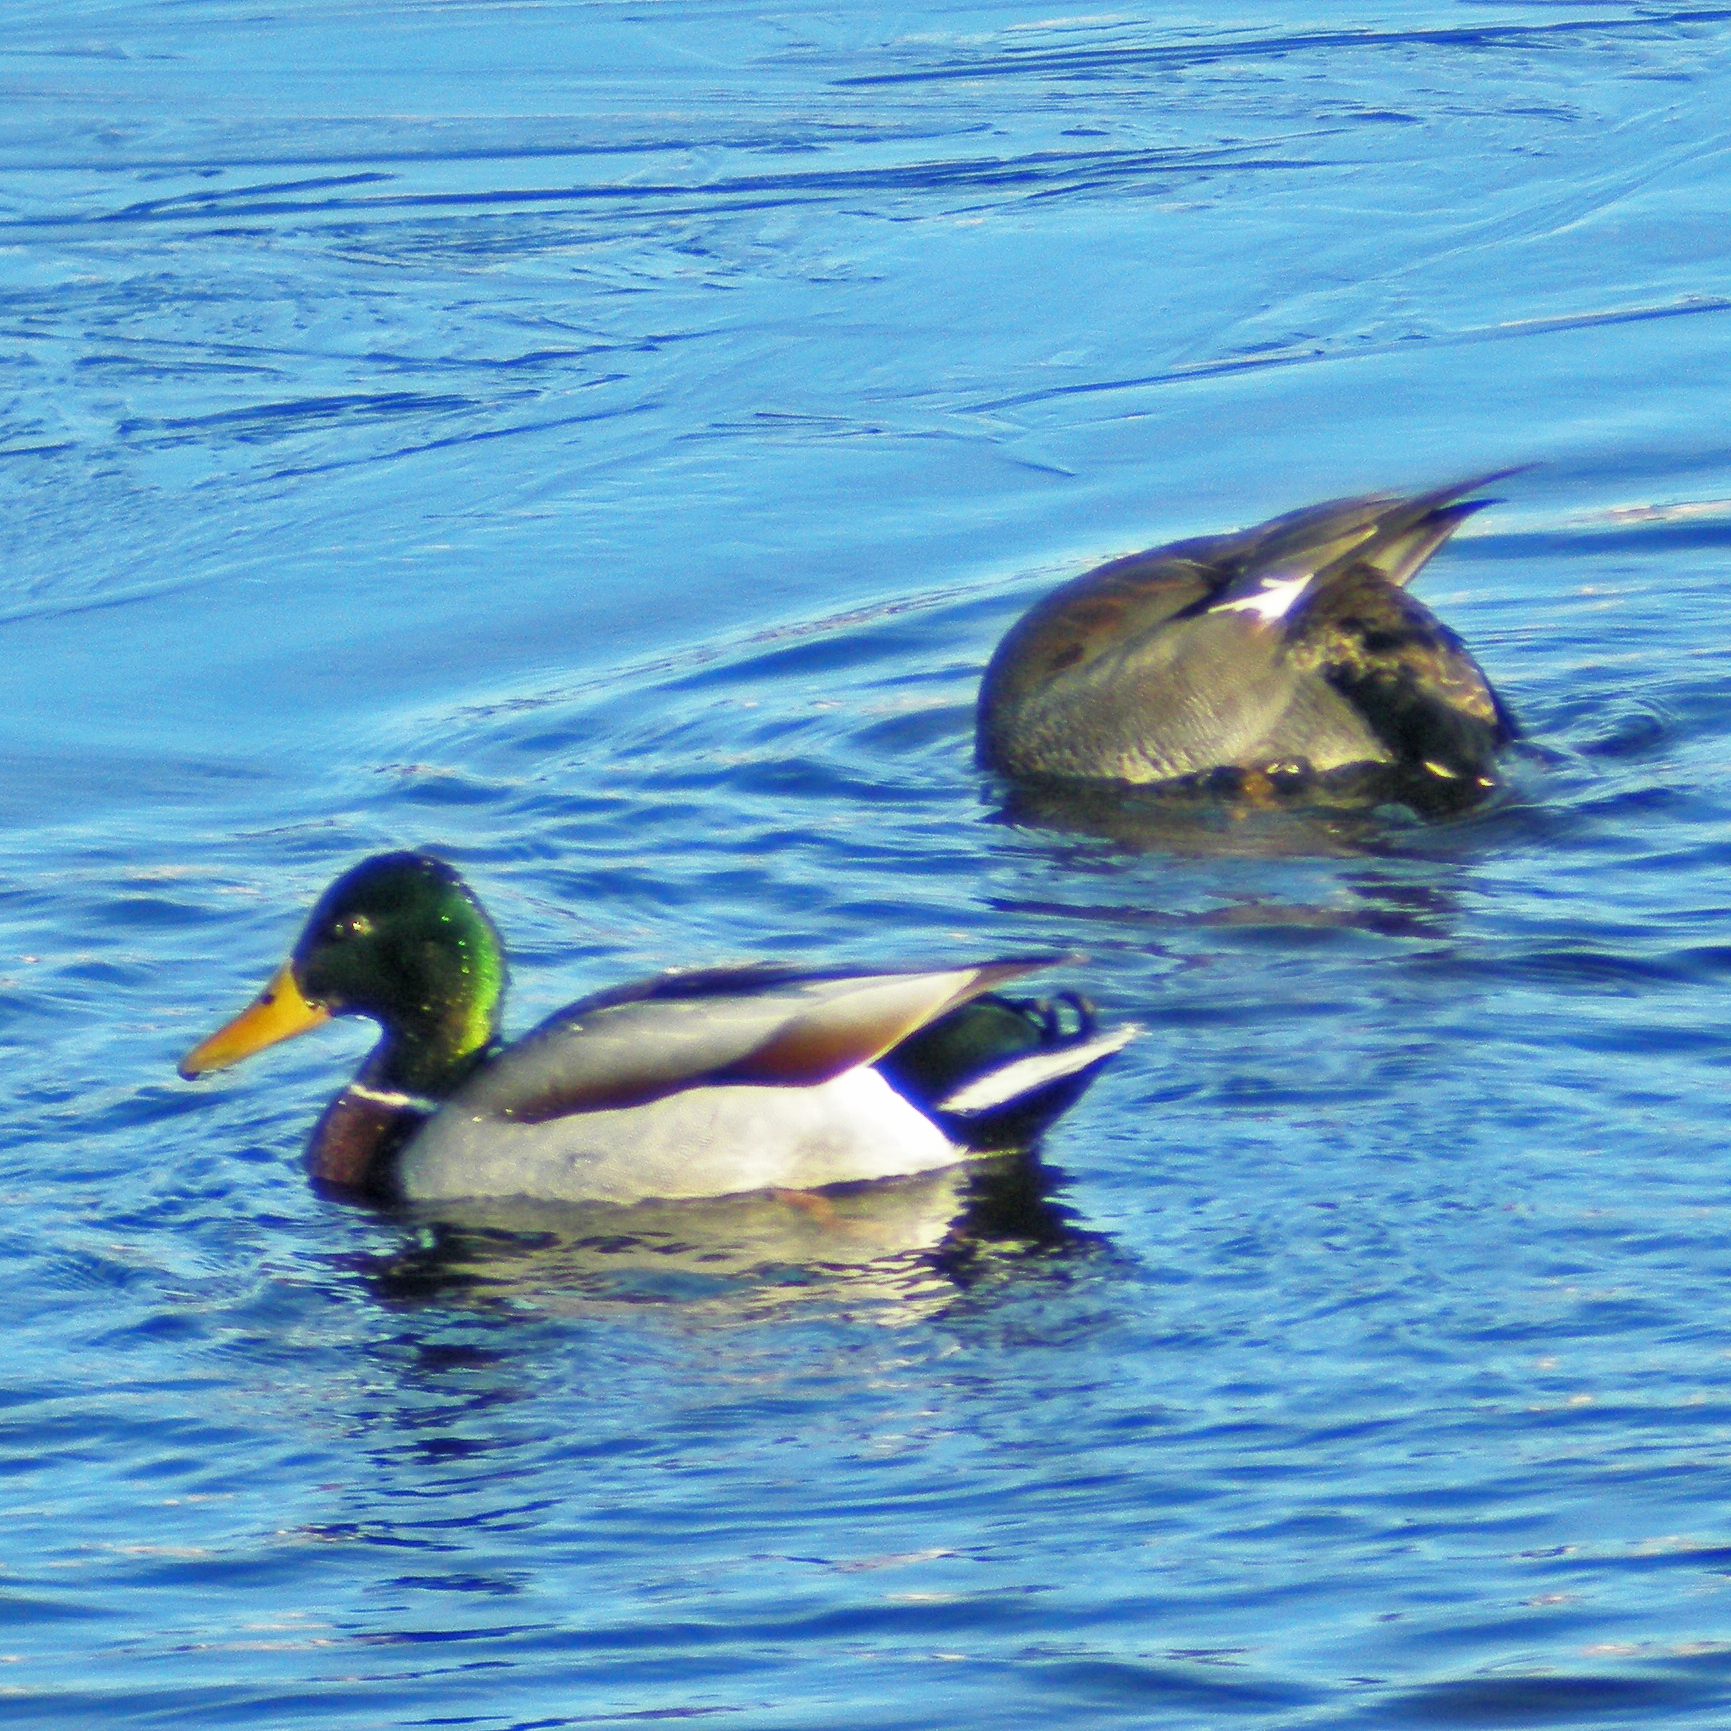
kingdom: Animalia
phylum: Chordata
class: Aves
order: Anseriformes
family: Anatidae
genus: Anas
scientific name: Anas platyrhynchos
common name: Mallard
